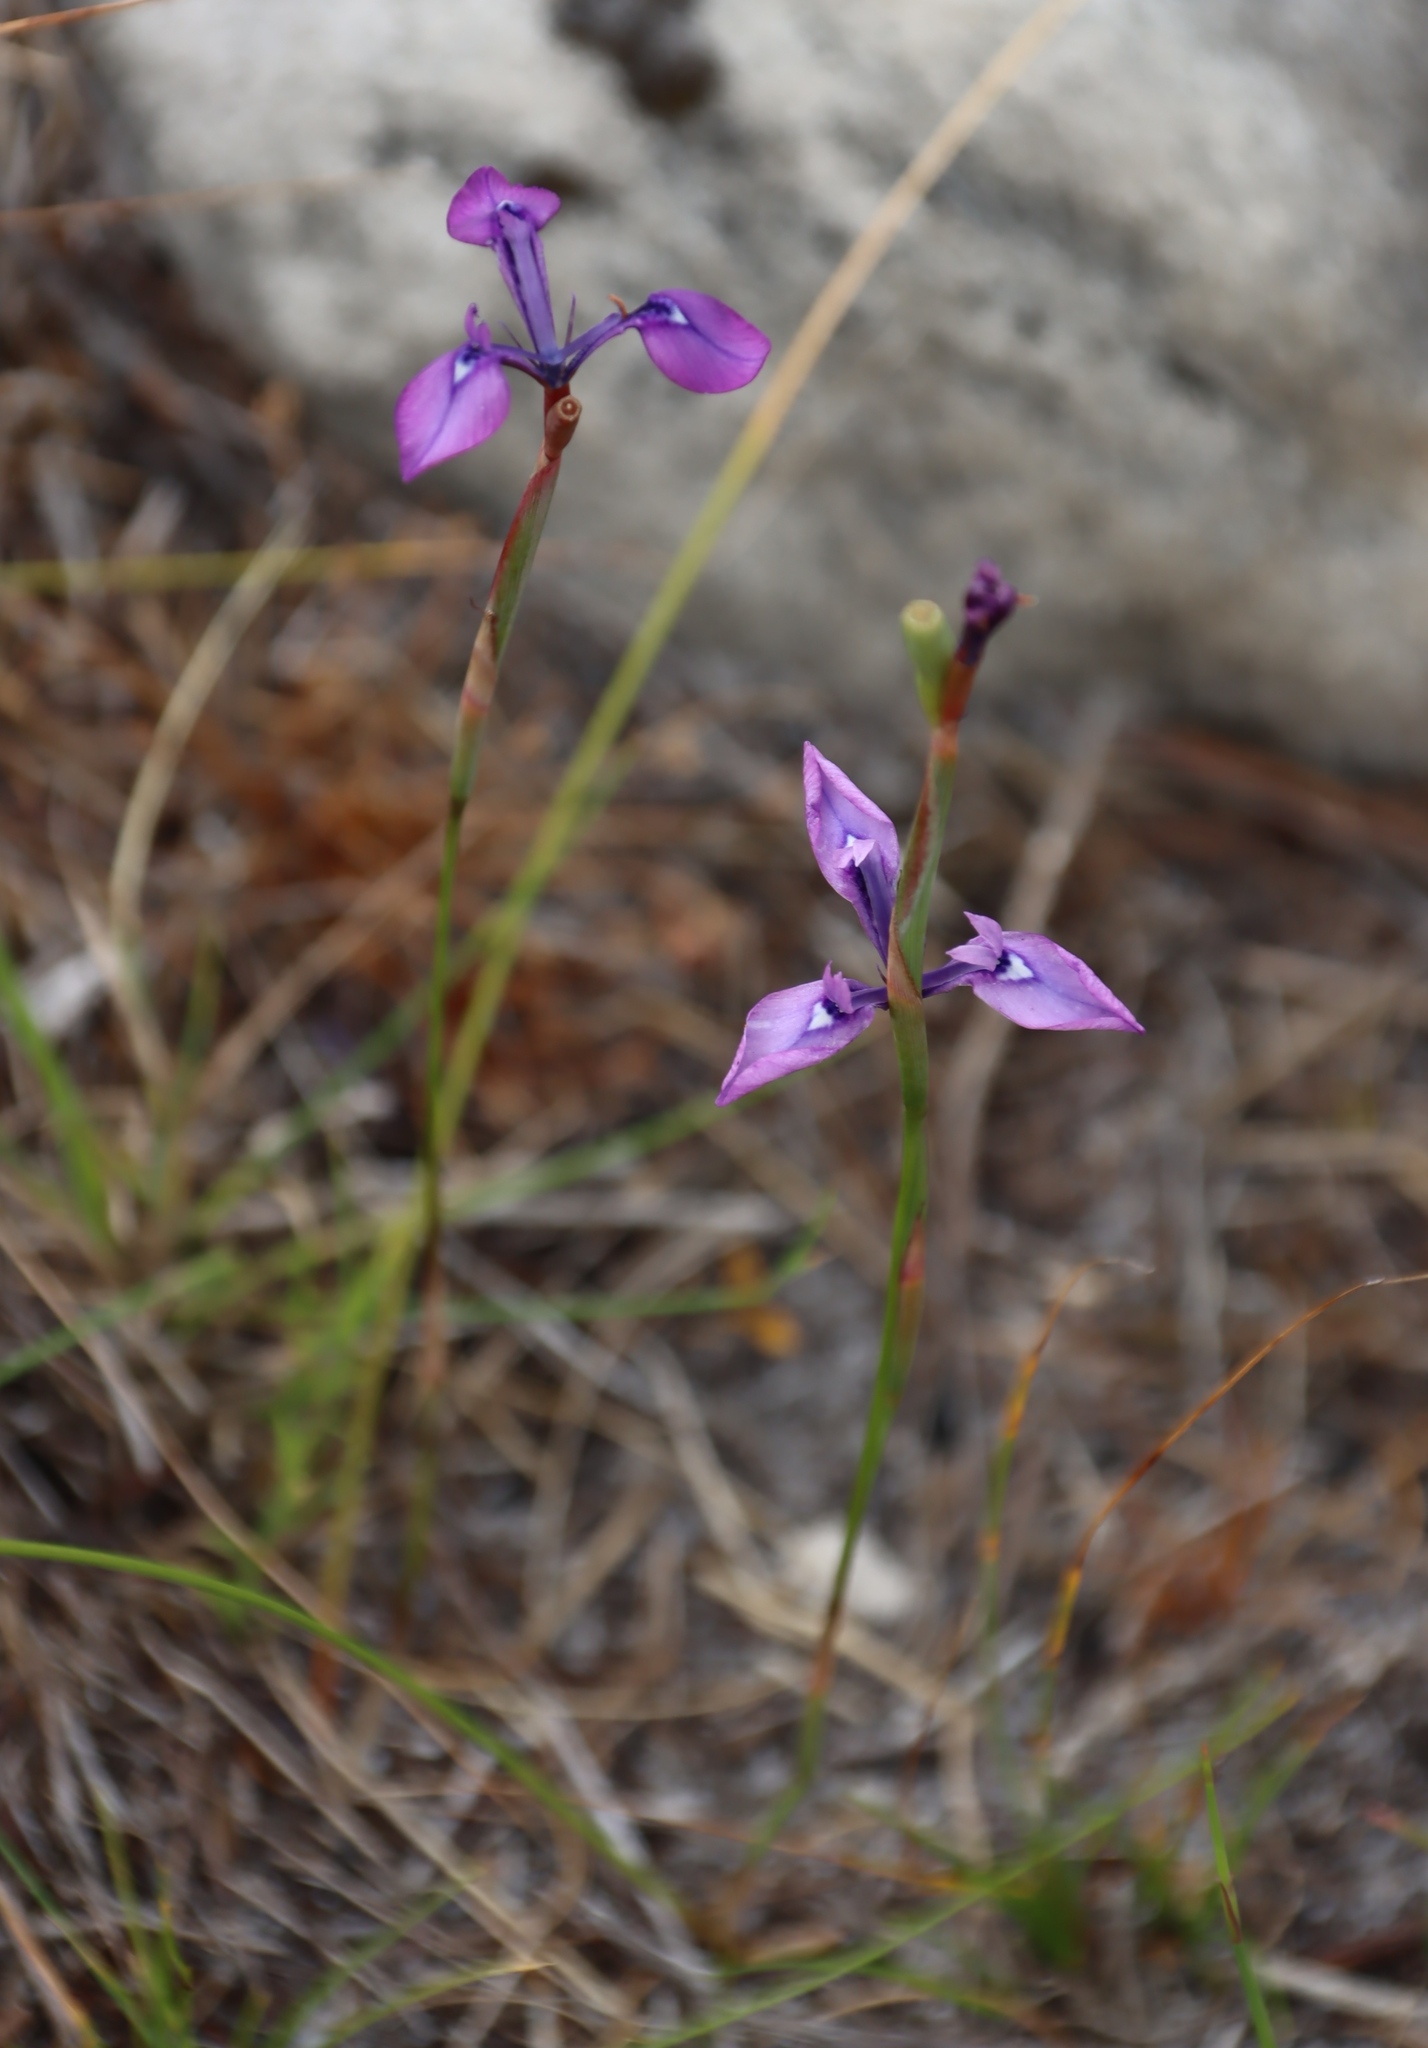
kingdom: Plantae
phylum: Tracheophyta
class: Liliopsida
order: Asparagales
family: Iridaceae
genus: Moraea
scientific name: Moraea tripetala
